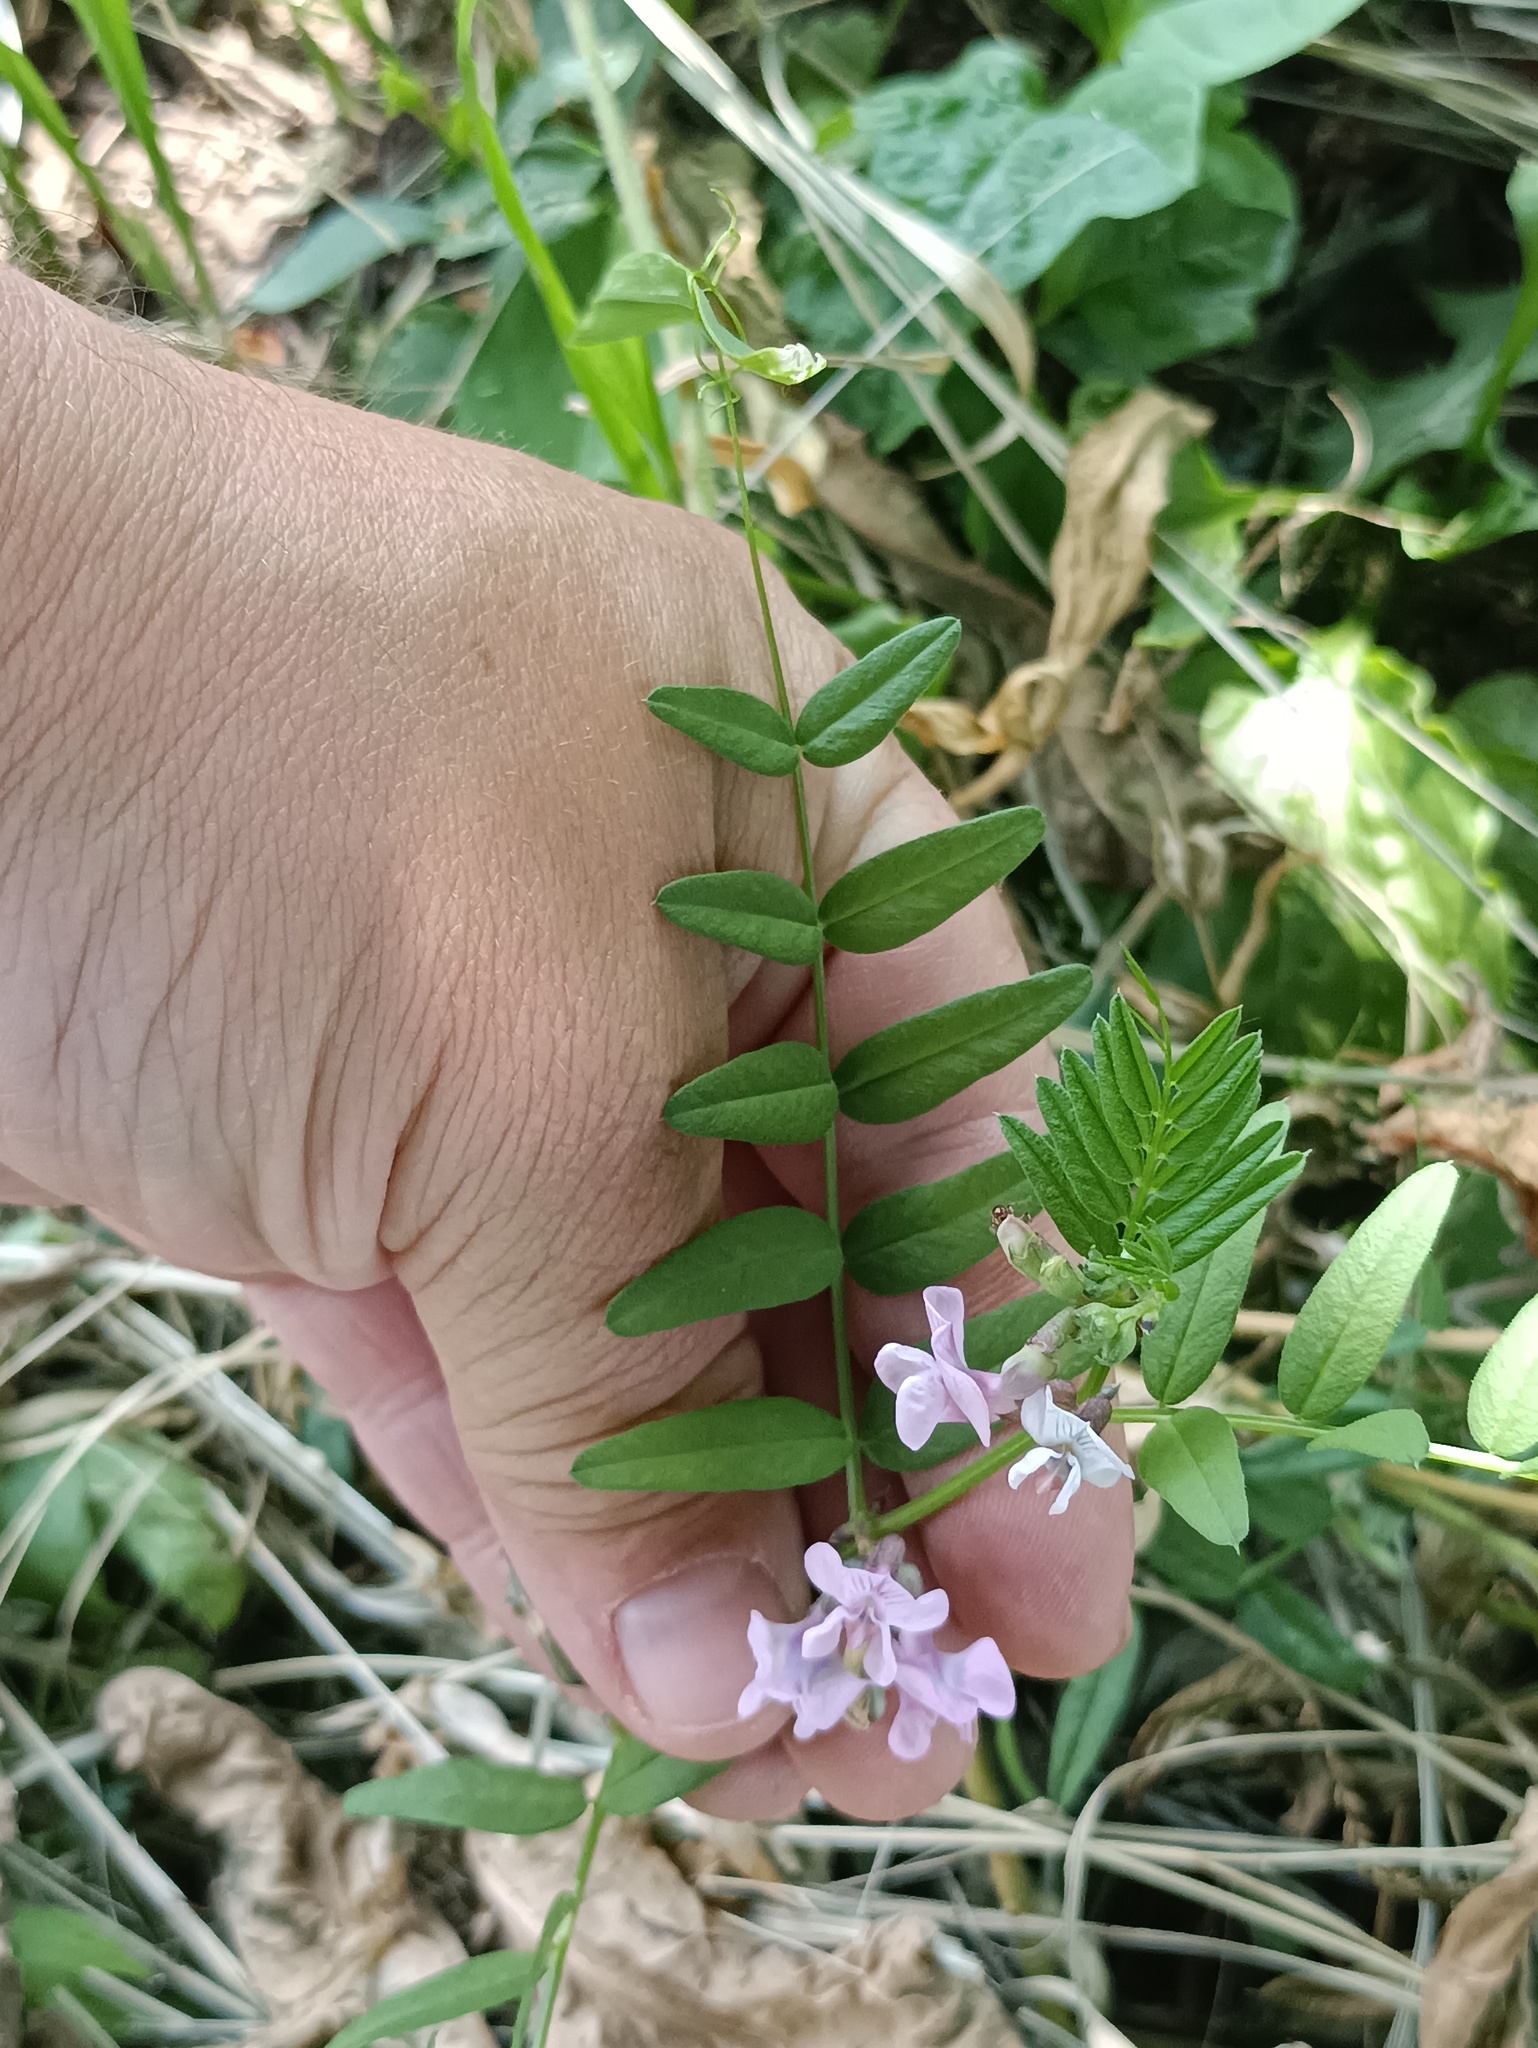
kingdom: Plantae
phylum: Tracheophyta
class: Magnoliopsida
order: Fabales
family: Fabaceae
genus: Vicia
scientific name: Vicia sepium
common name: Bush vetch
